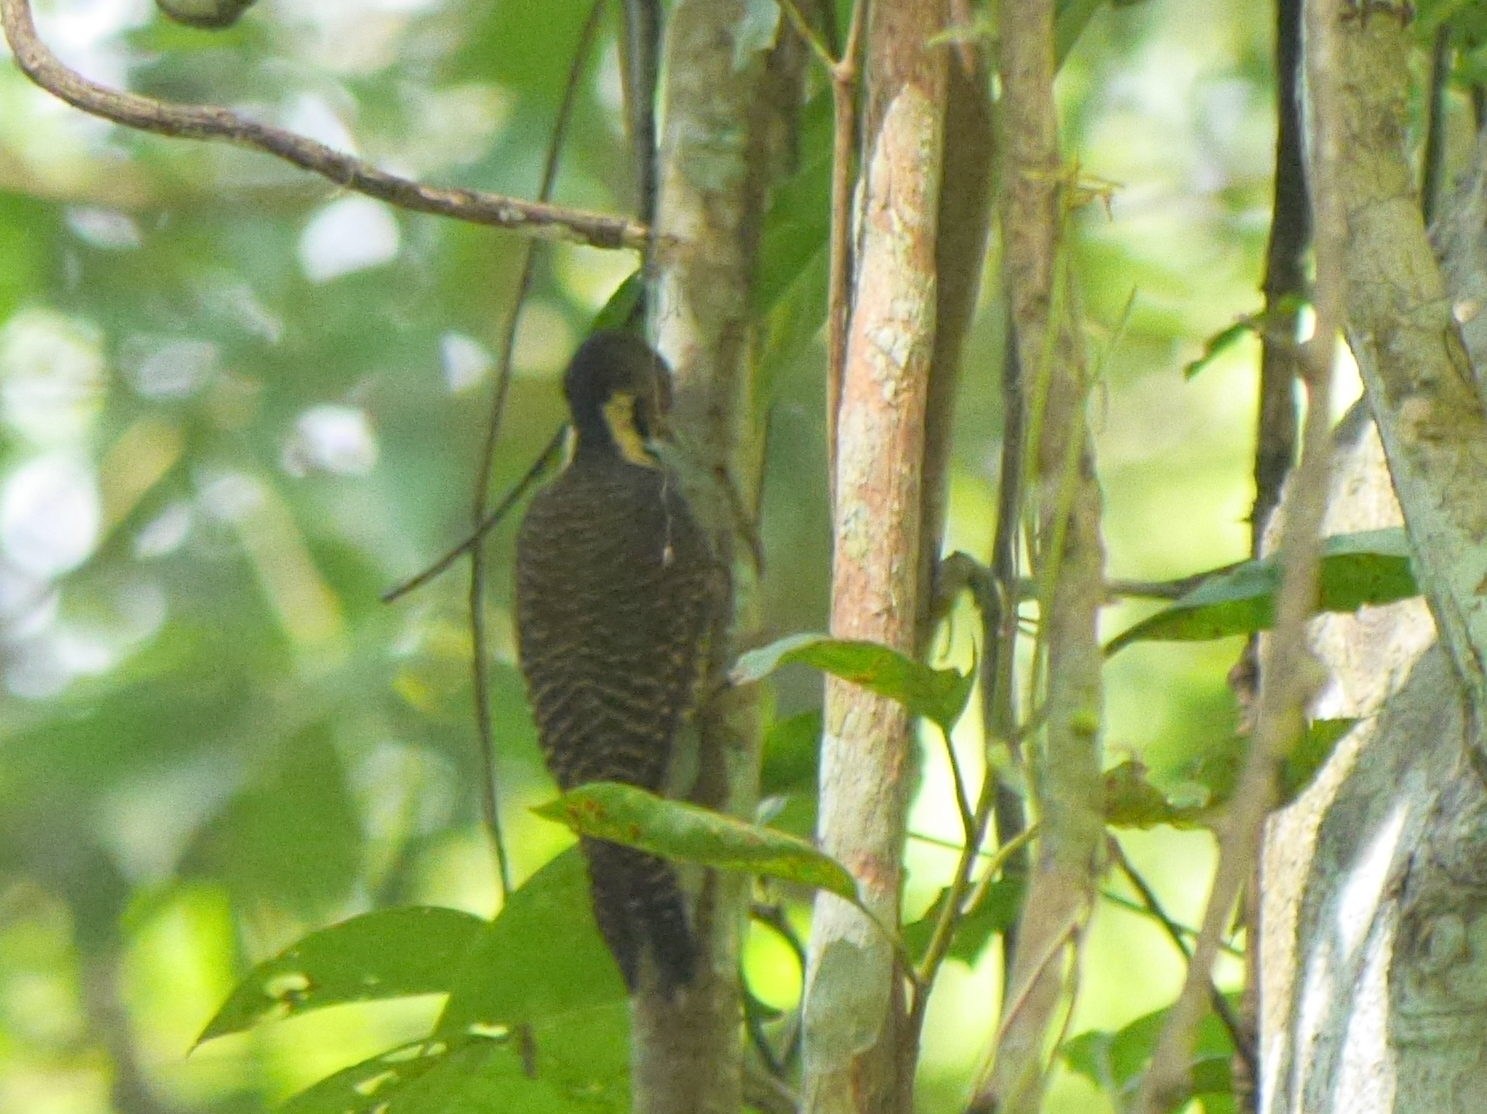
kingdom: Animalia
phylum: Chordata
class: Aves
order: Piciformes
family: Picidae
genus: Meiglyptes
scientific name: Meiglyptes tukki
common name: Buff-necked woodpecker
